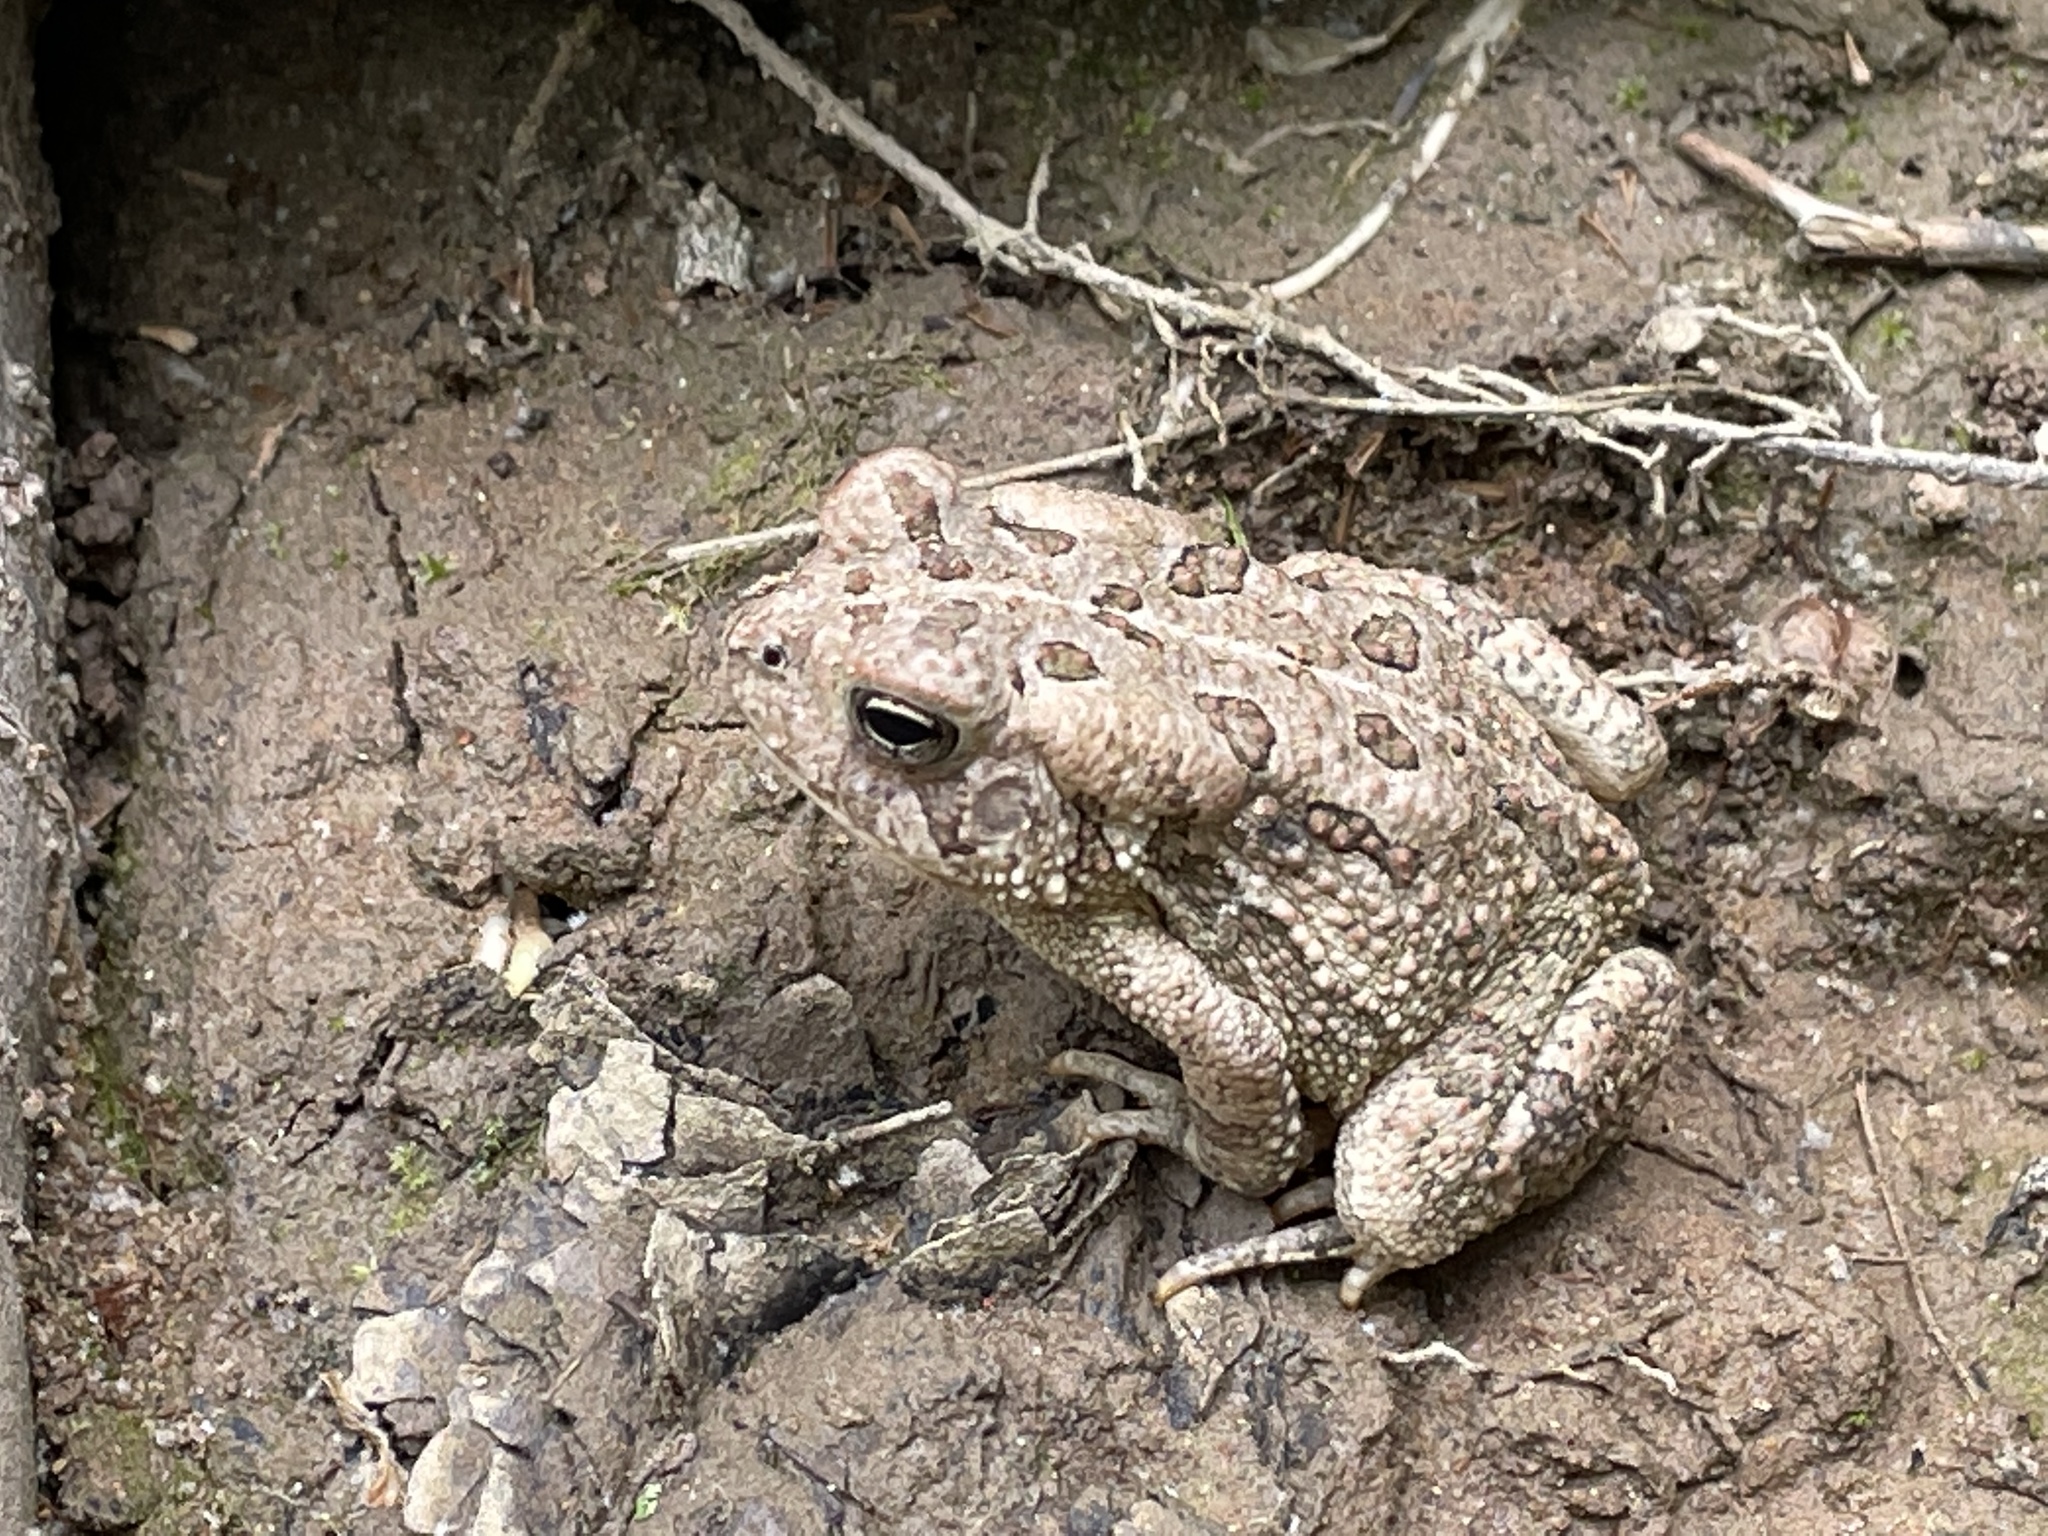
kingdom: Animalia
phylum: Chordata
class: Amphibia
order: Anura
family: Bufonidae
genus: Anaxyrus
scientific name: Anaxyrus fowleri
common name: Fowler's toad
